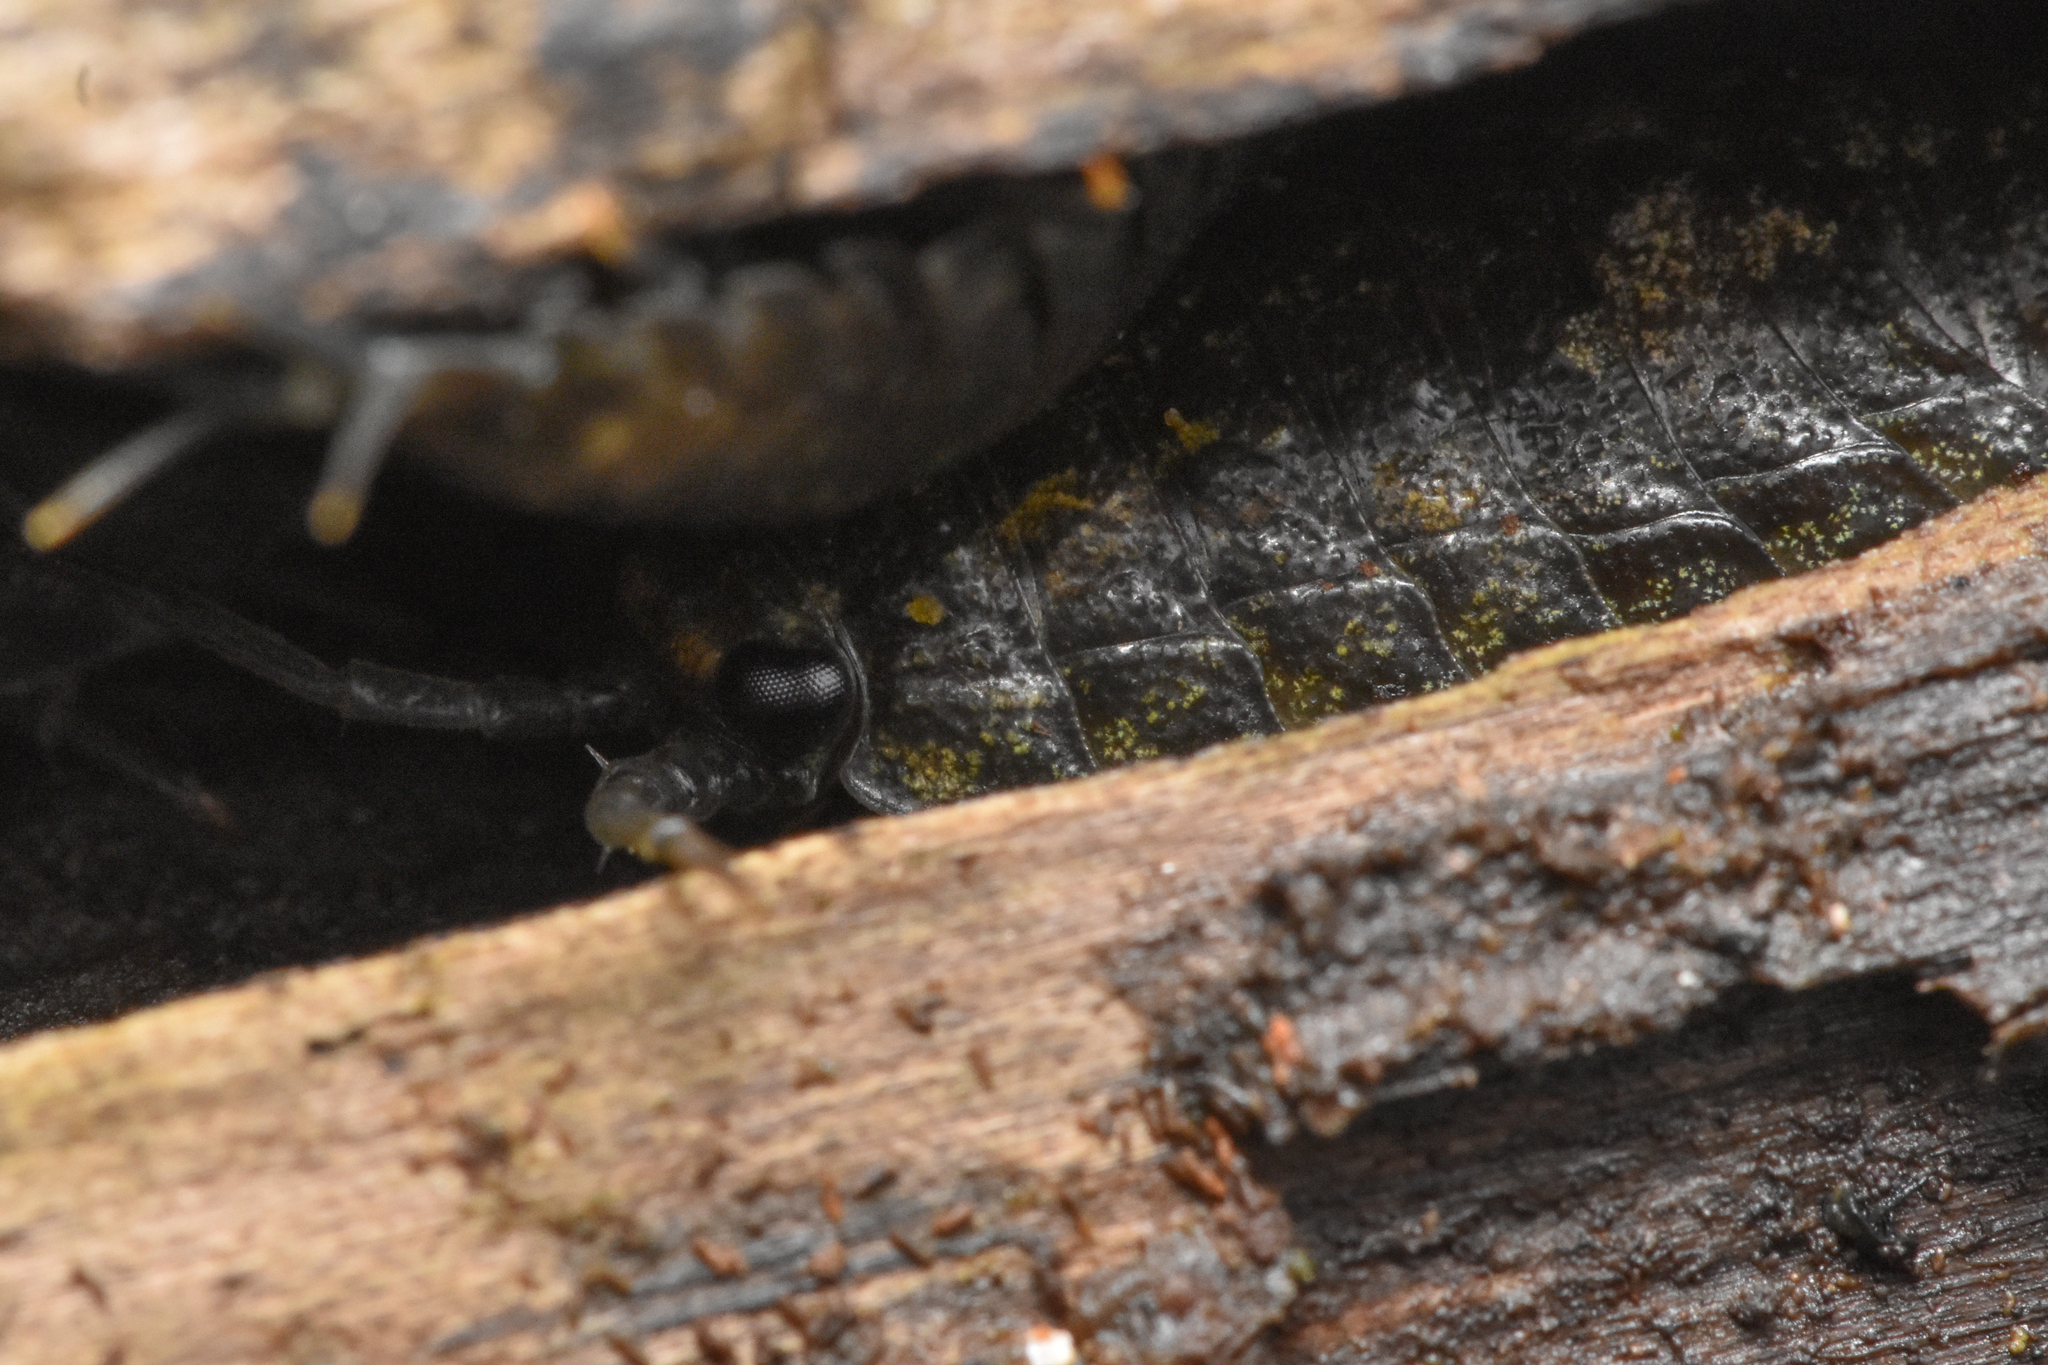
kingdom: Animalia
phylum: Arthropoda
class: Malacostraca
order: Isopoda
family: Ligiidae
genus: Ligia
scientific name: Ligia pallasii
